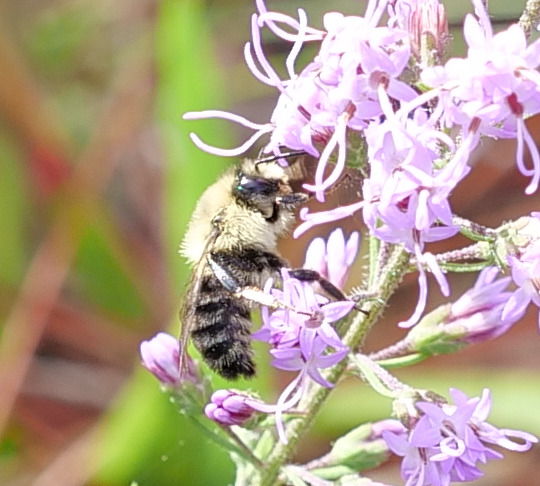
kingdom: Animalia
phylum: Arthropoda
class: Insecta
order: Hymenoptera
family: Apidae
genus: Bombus
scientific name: Bombus impatiens
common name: Common eastern bumble bee
